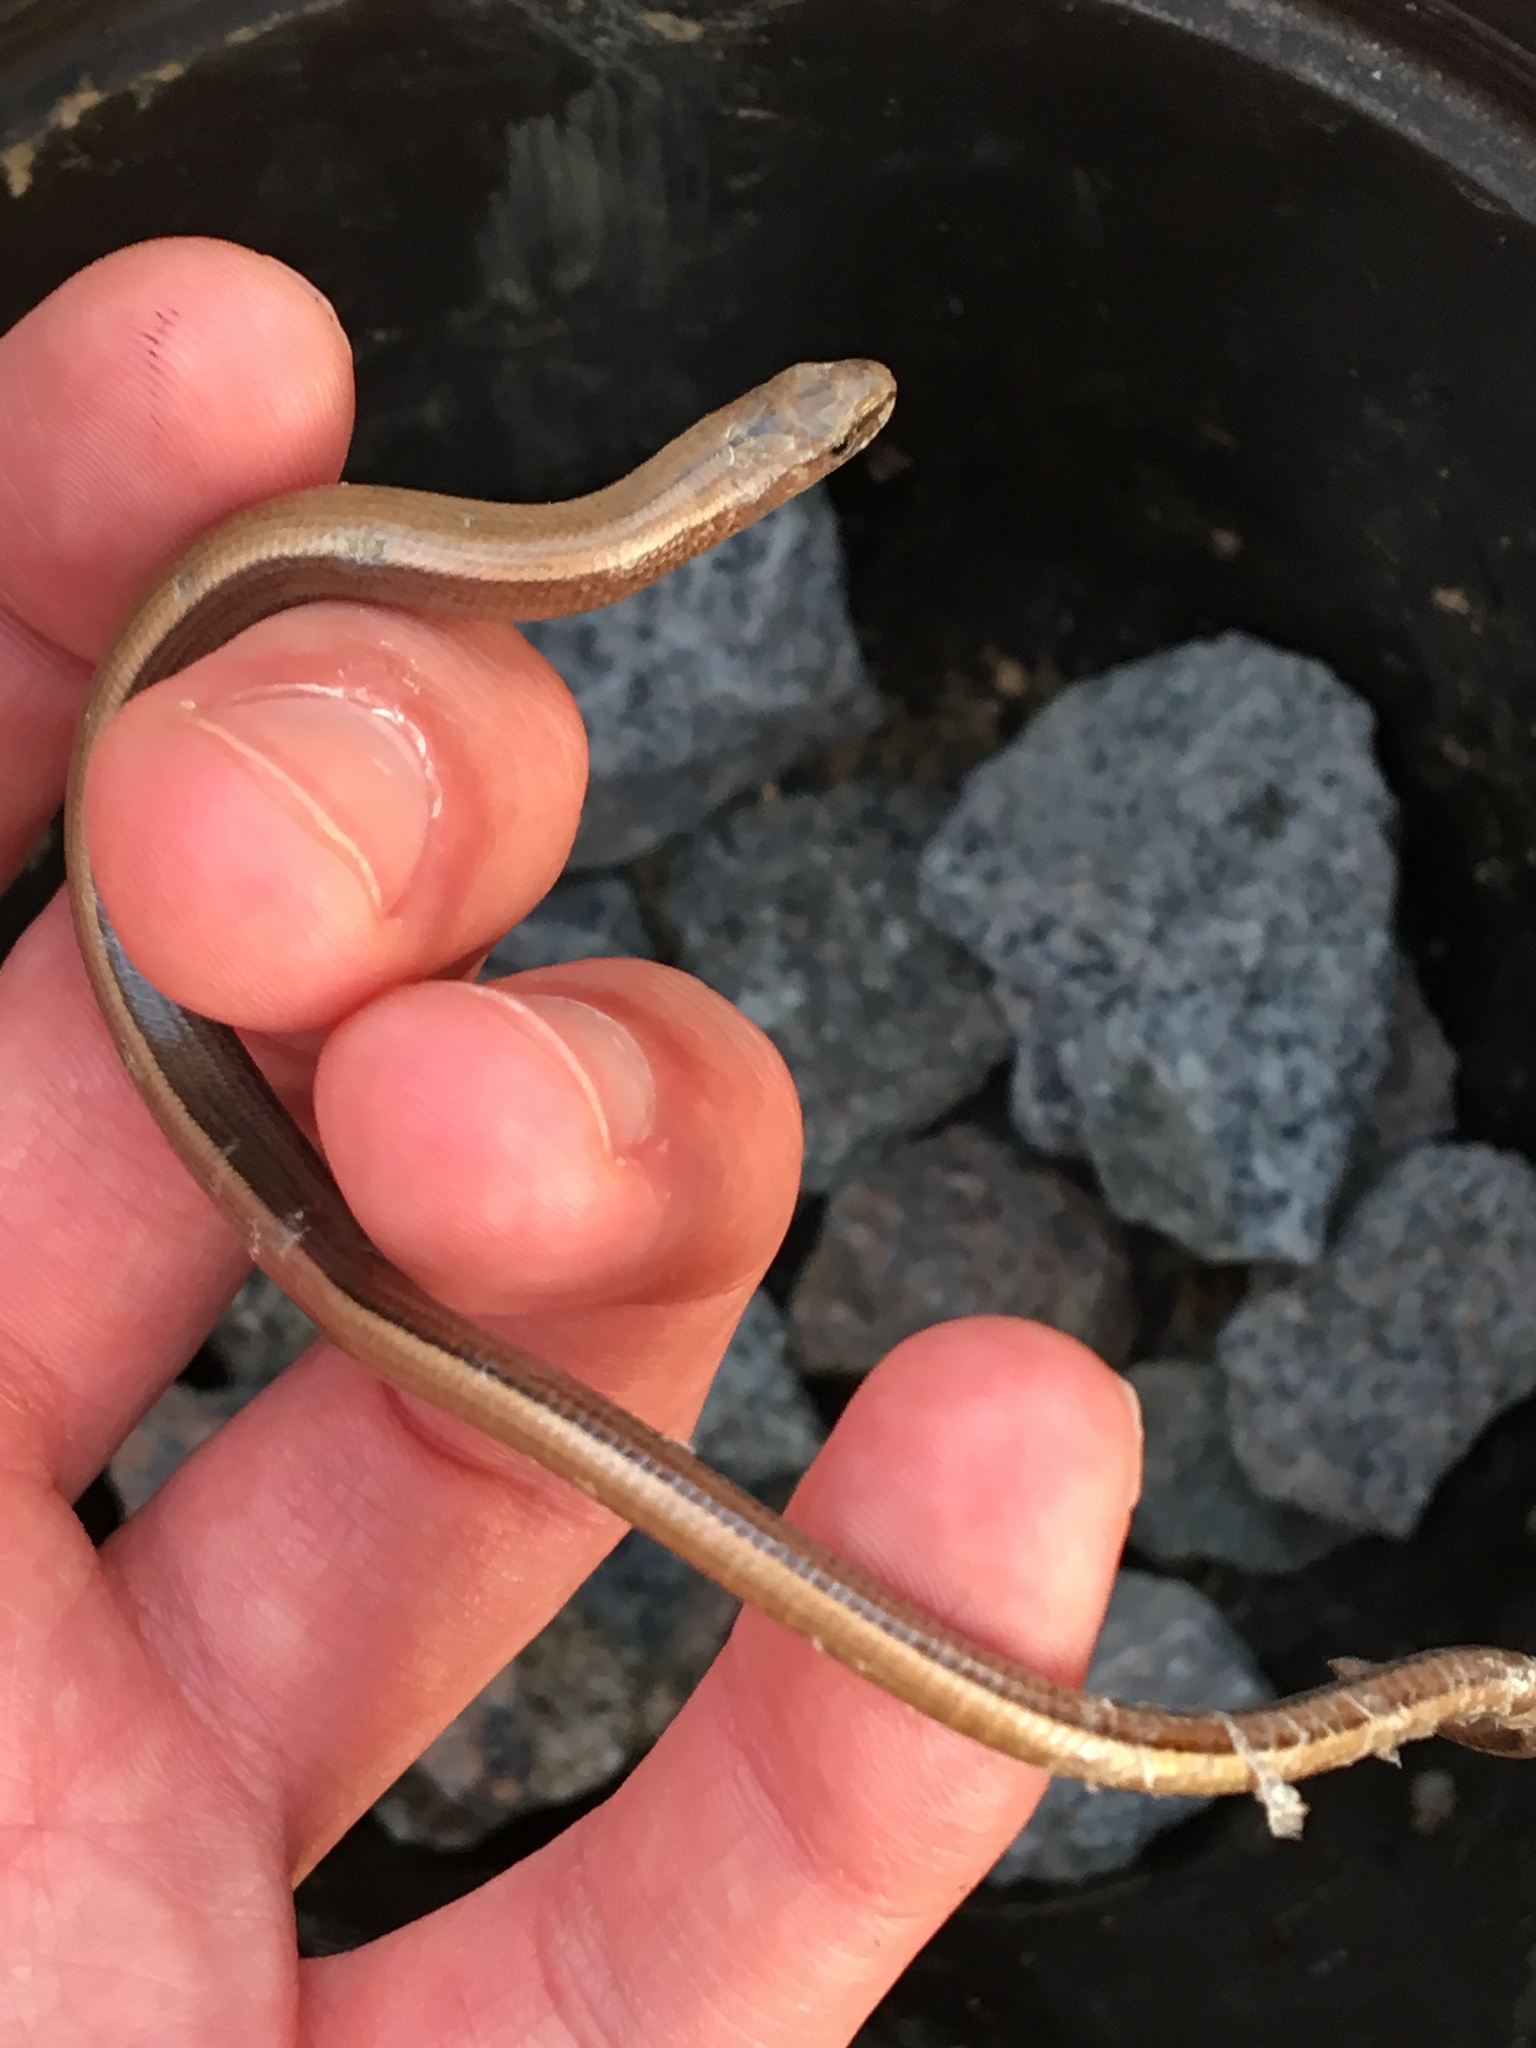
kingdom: Animalia
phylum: Chordata
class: Squamata
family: Anguidae
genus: Anguis
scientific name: Anguis fragilis
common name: Slow worm
